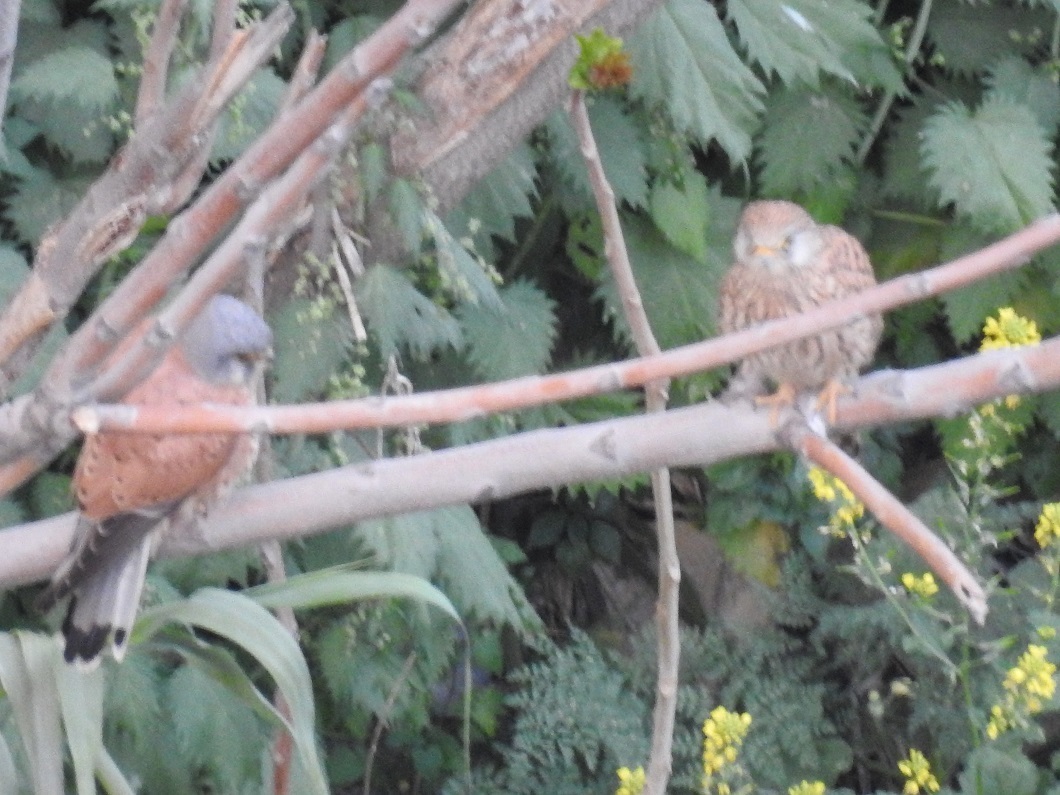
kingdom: Animalia
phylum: Chordata
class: Aves
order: Falconiformes
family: Falconidae
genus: Falco
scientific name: Falco tinnunculus
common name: Common kestrel
